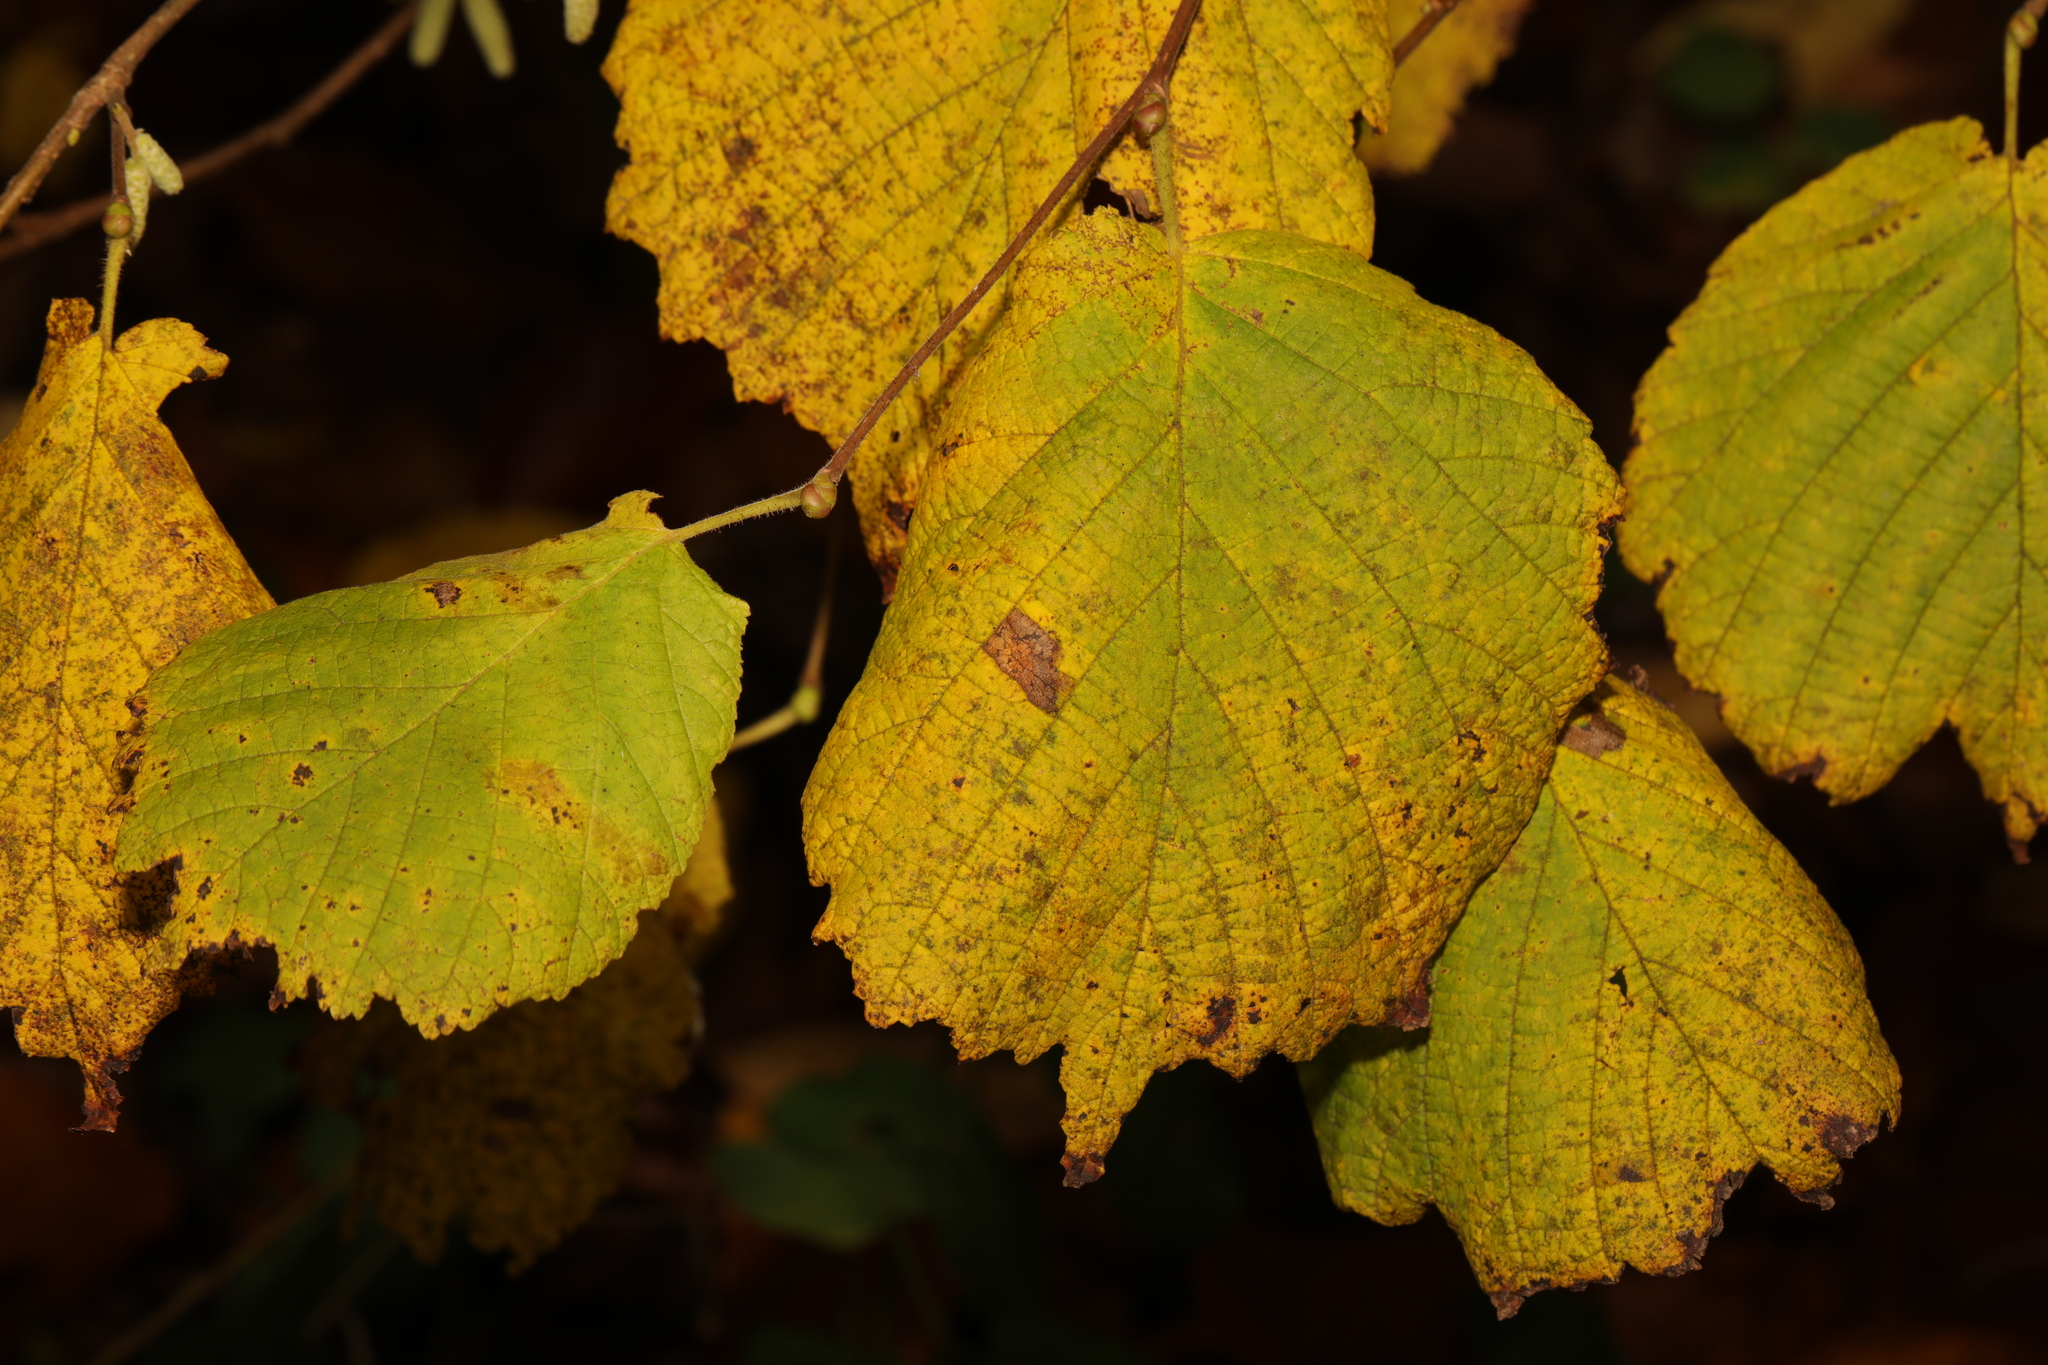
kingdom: Plantae
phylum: Tracheophyta
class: Magnoliopsida
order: Fagales
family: Betulaceae
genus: Corylus
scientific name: Corylus avellana
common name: European hazel
